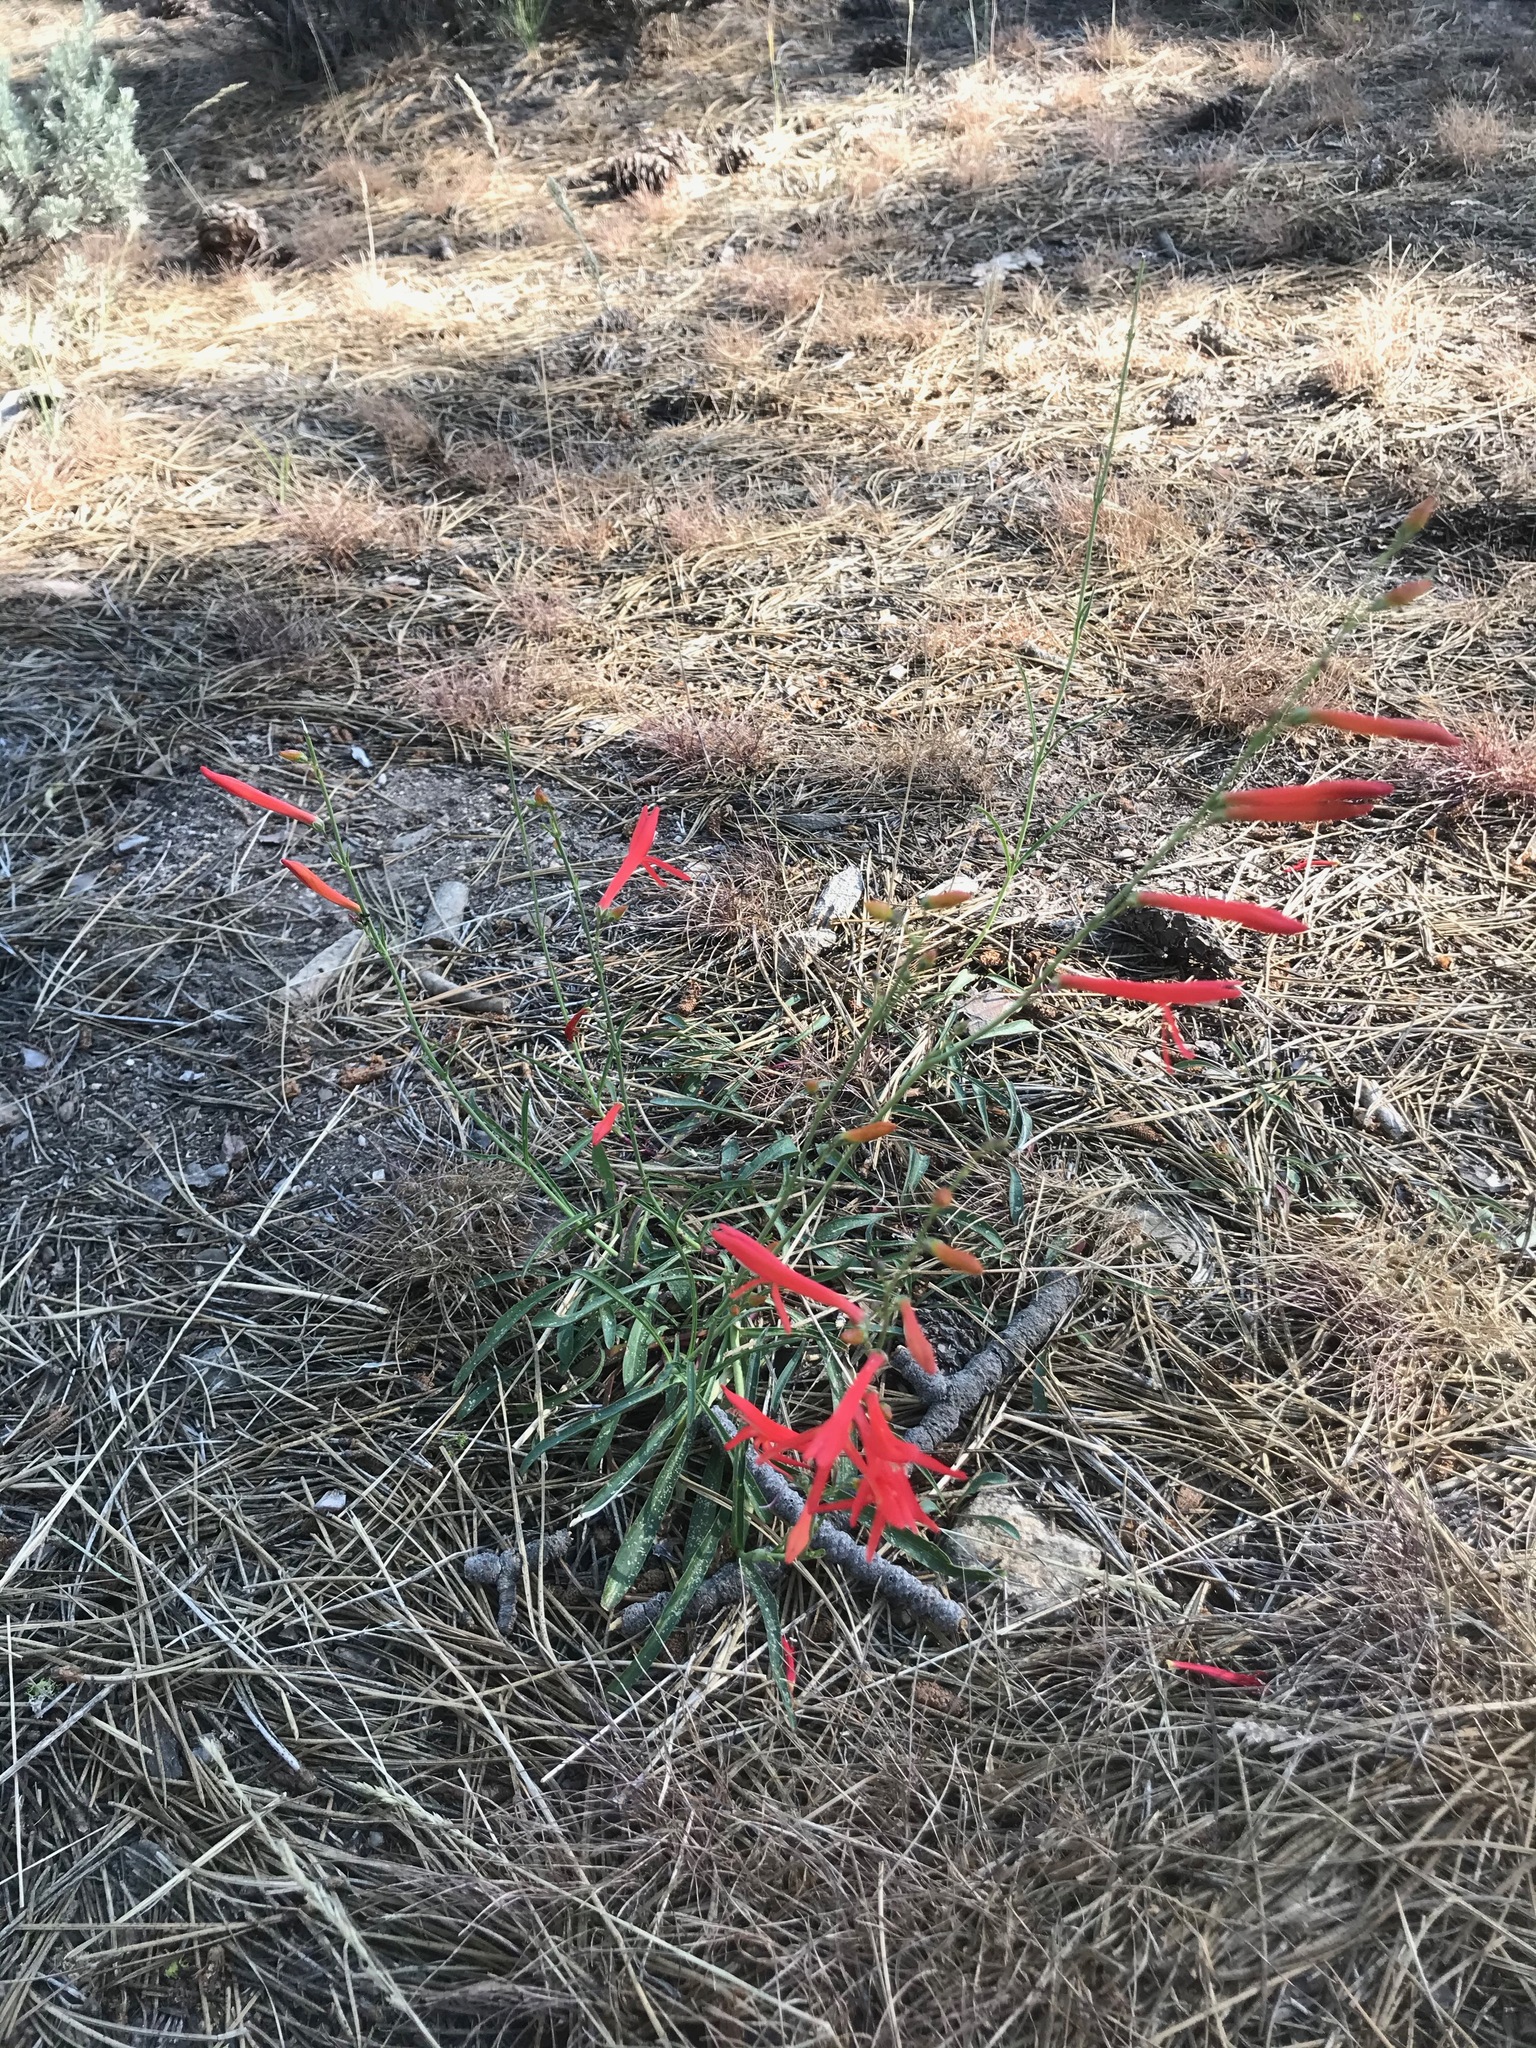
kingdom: Plantae
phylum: Tracheophyta
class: Magnoliopsida
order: Lamiales
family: Plantaginaceae
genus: Penstemon
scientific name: Penstemon labrosus
